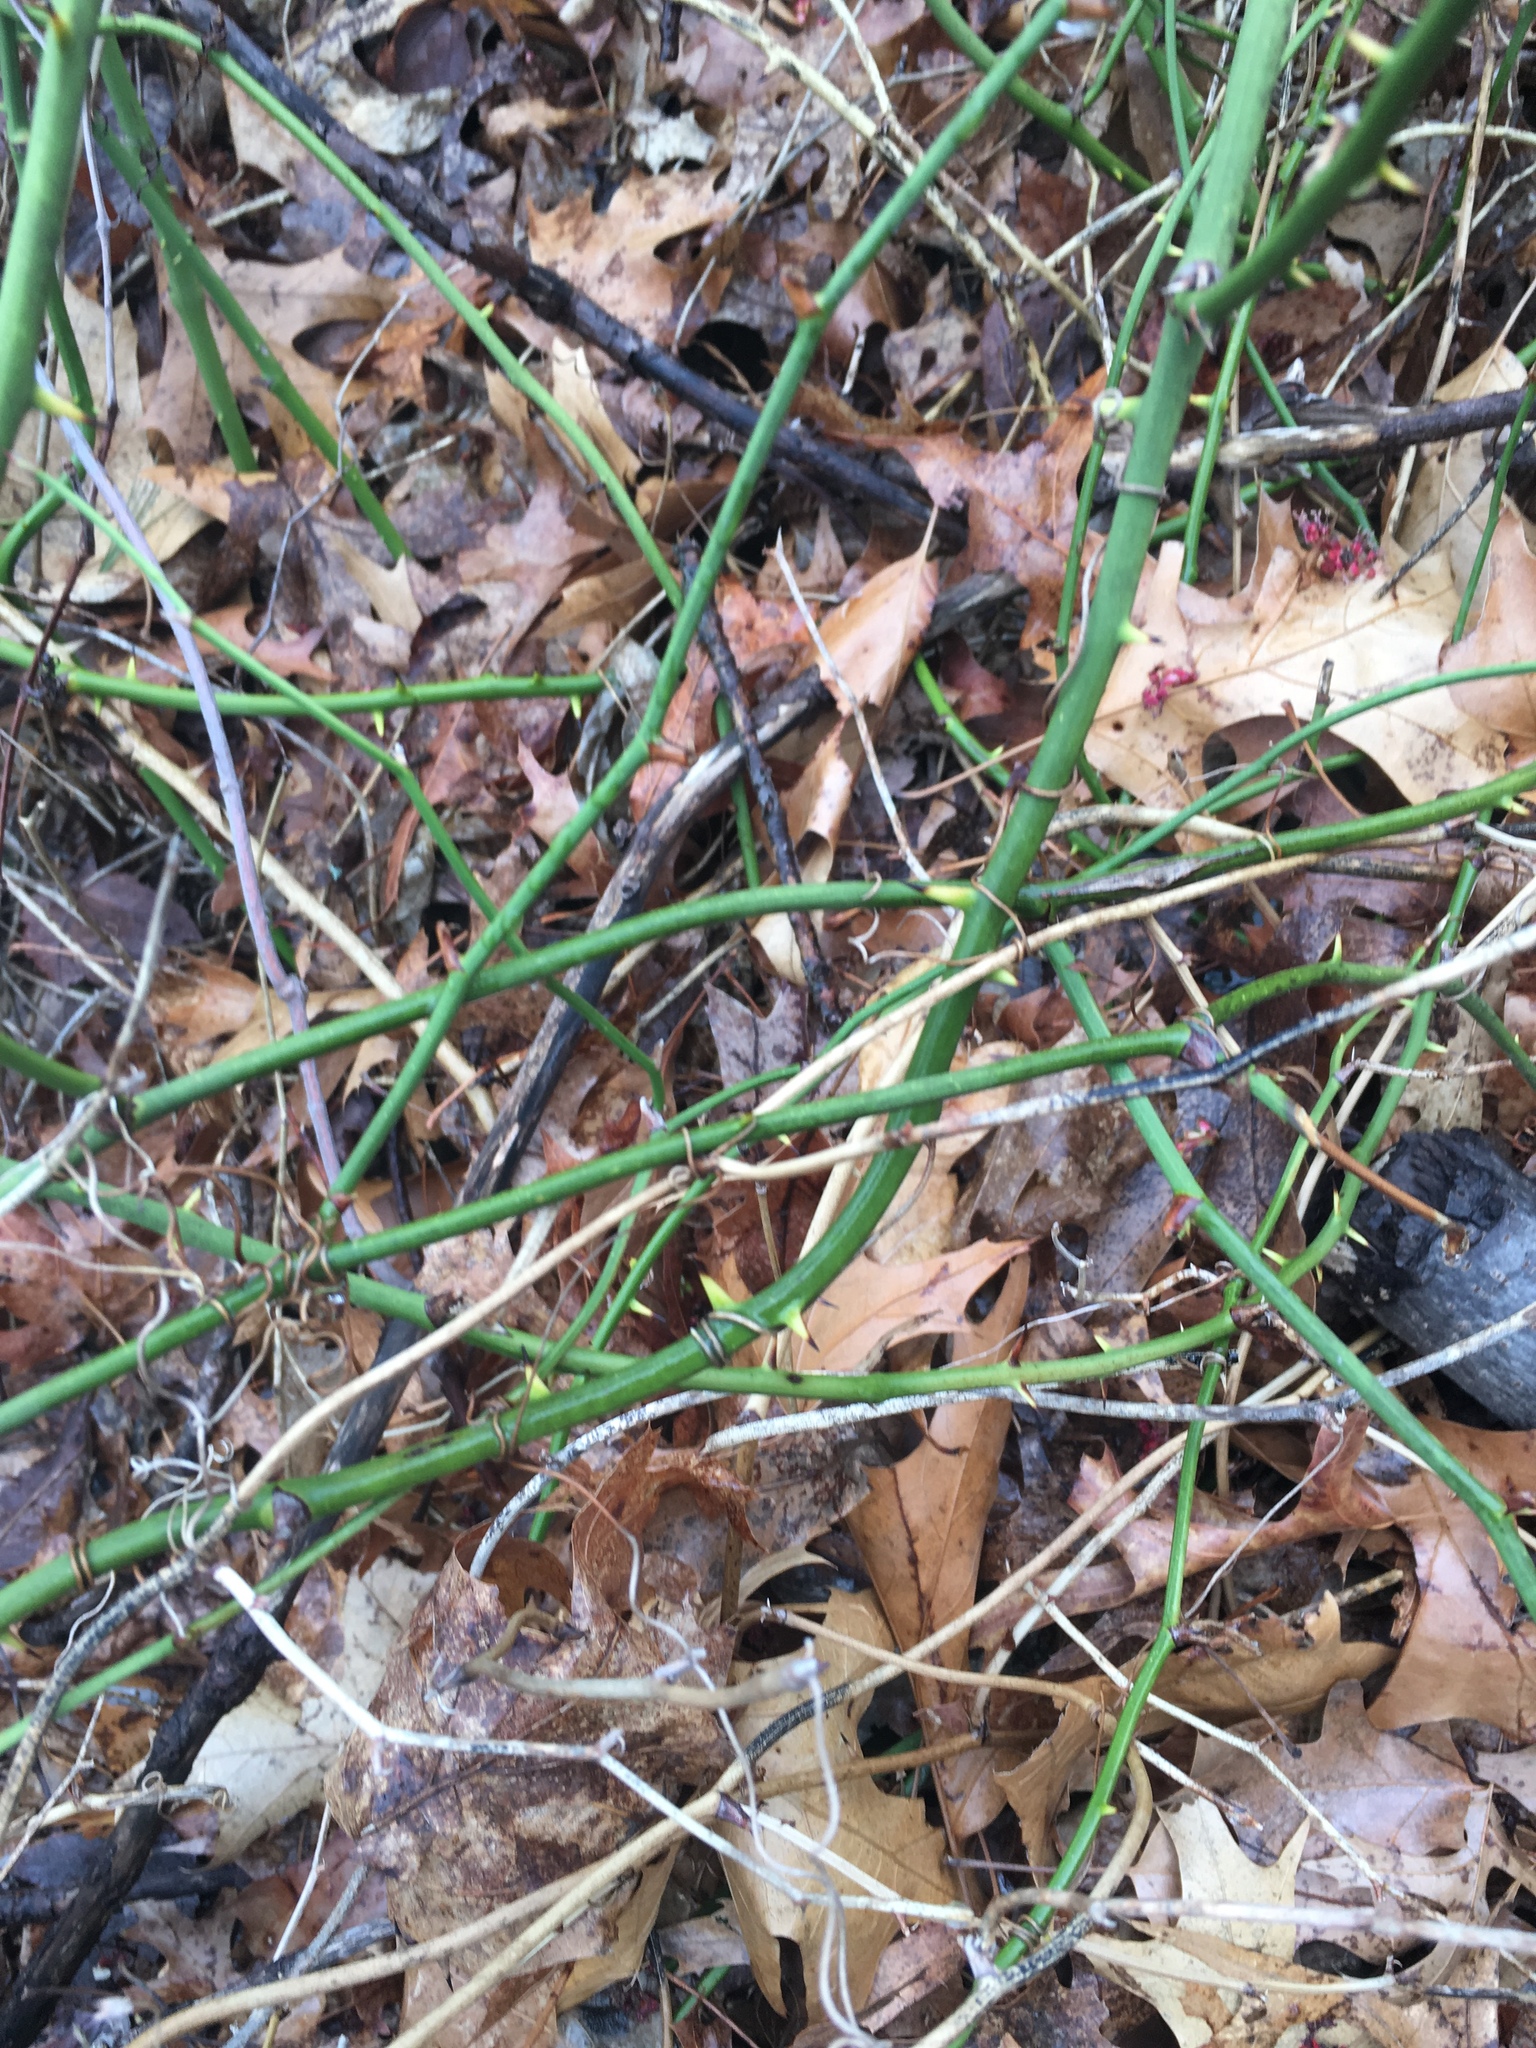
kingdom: Plantae
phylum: Tracheophyta
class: Liliopsida
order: Liliales
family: Smilacaceae
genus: Smilax
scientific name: Smilax rotundifolia
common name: Bullbriar
